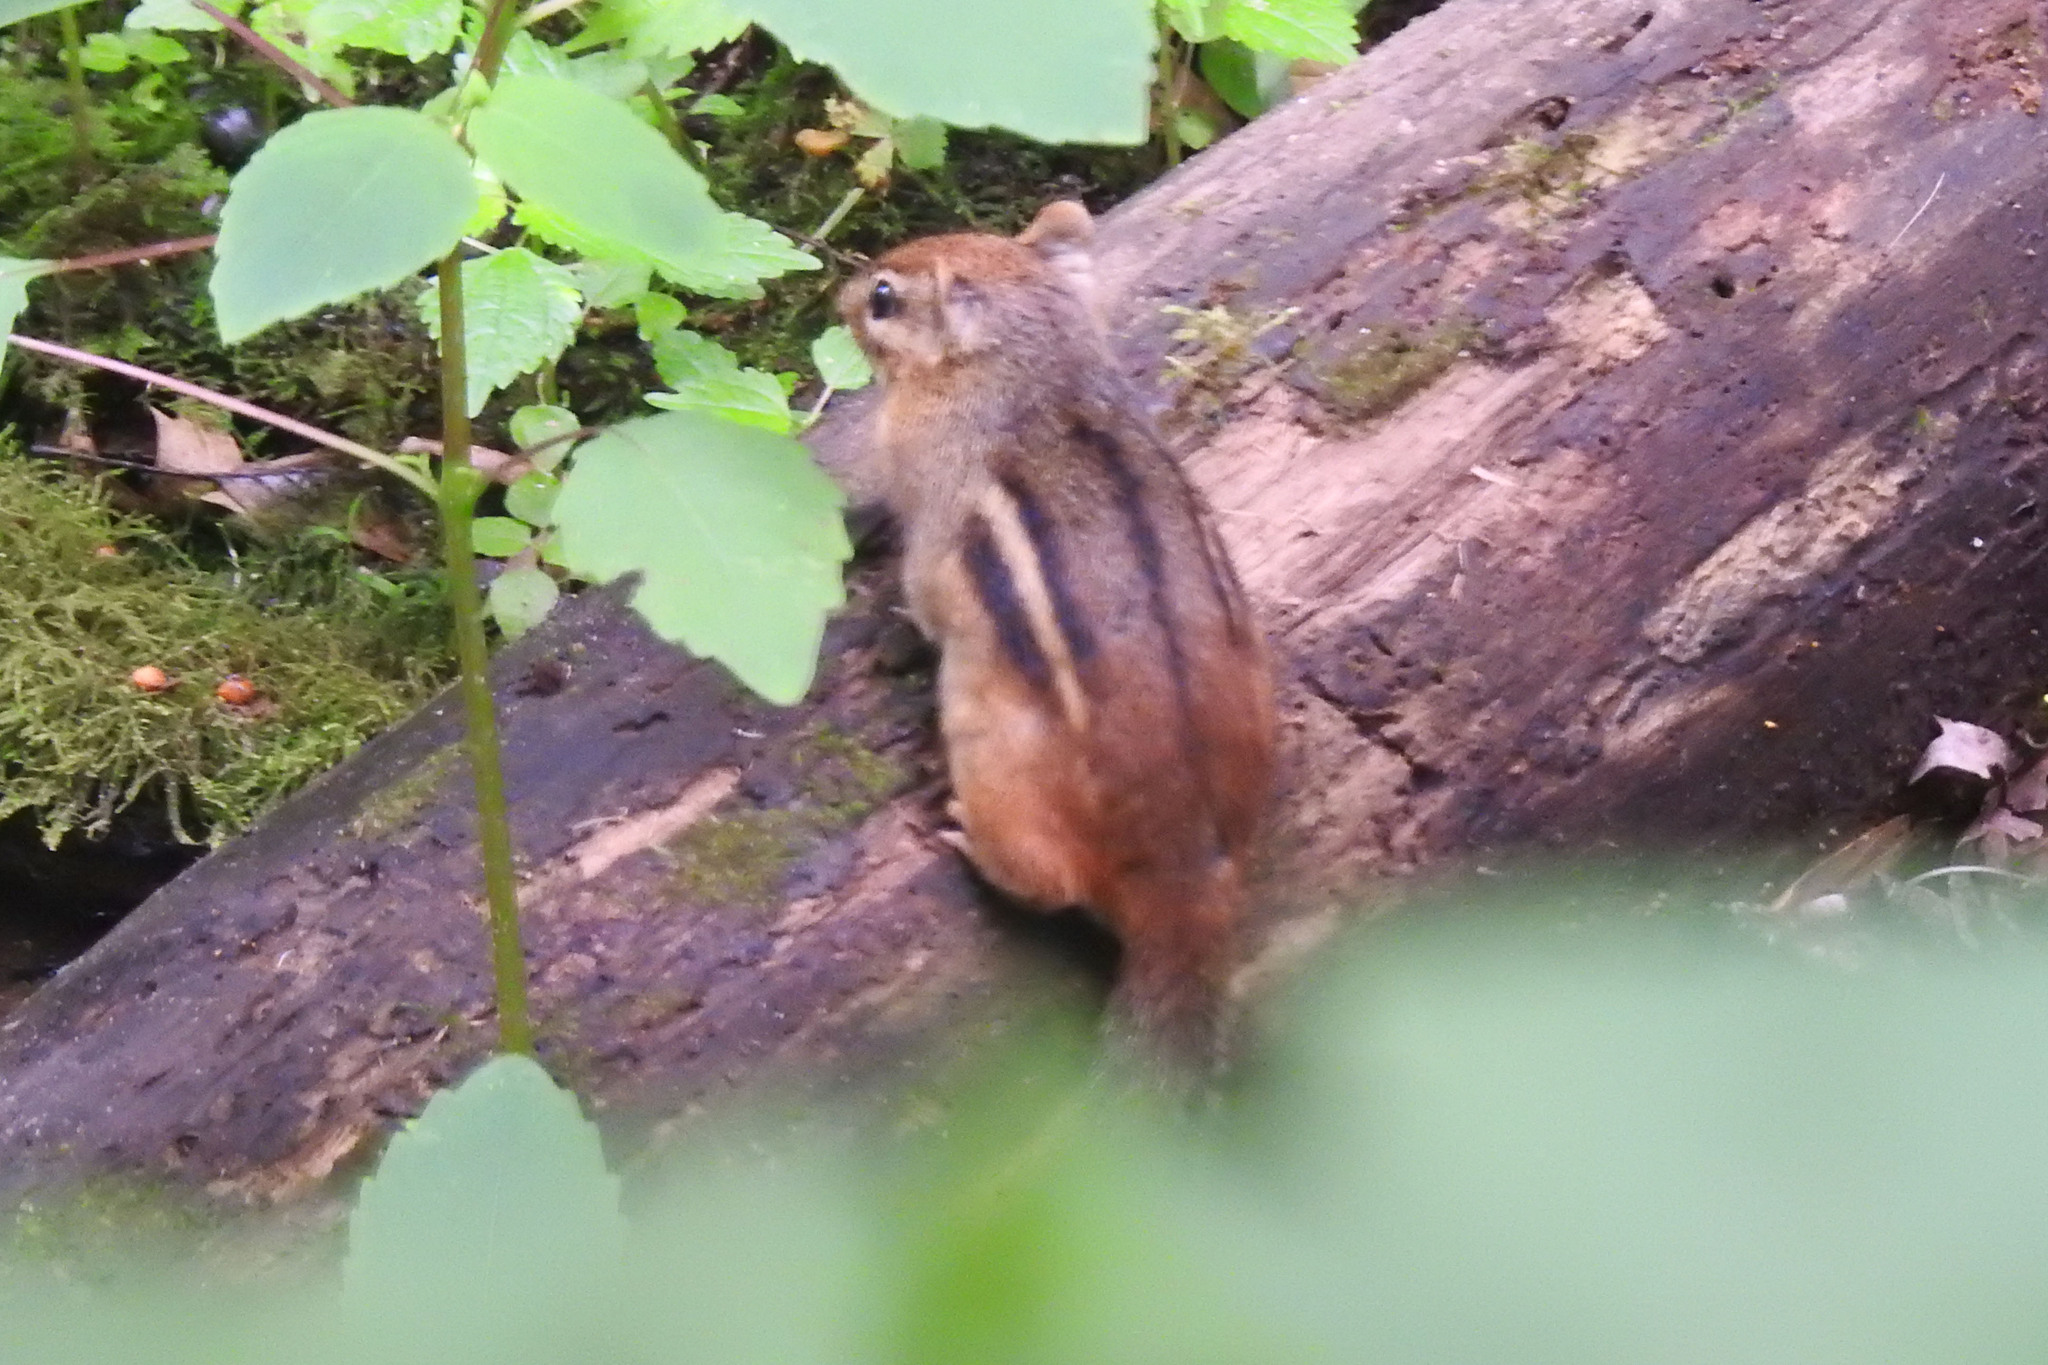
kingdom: Animalia
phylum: Chordata
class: Mammalia
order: Rodentia
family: Sciuridae
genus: Tamias
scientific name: Tamias striatus
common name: Eastern chipmunk
